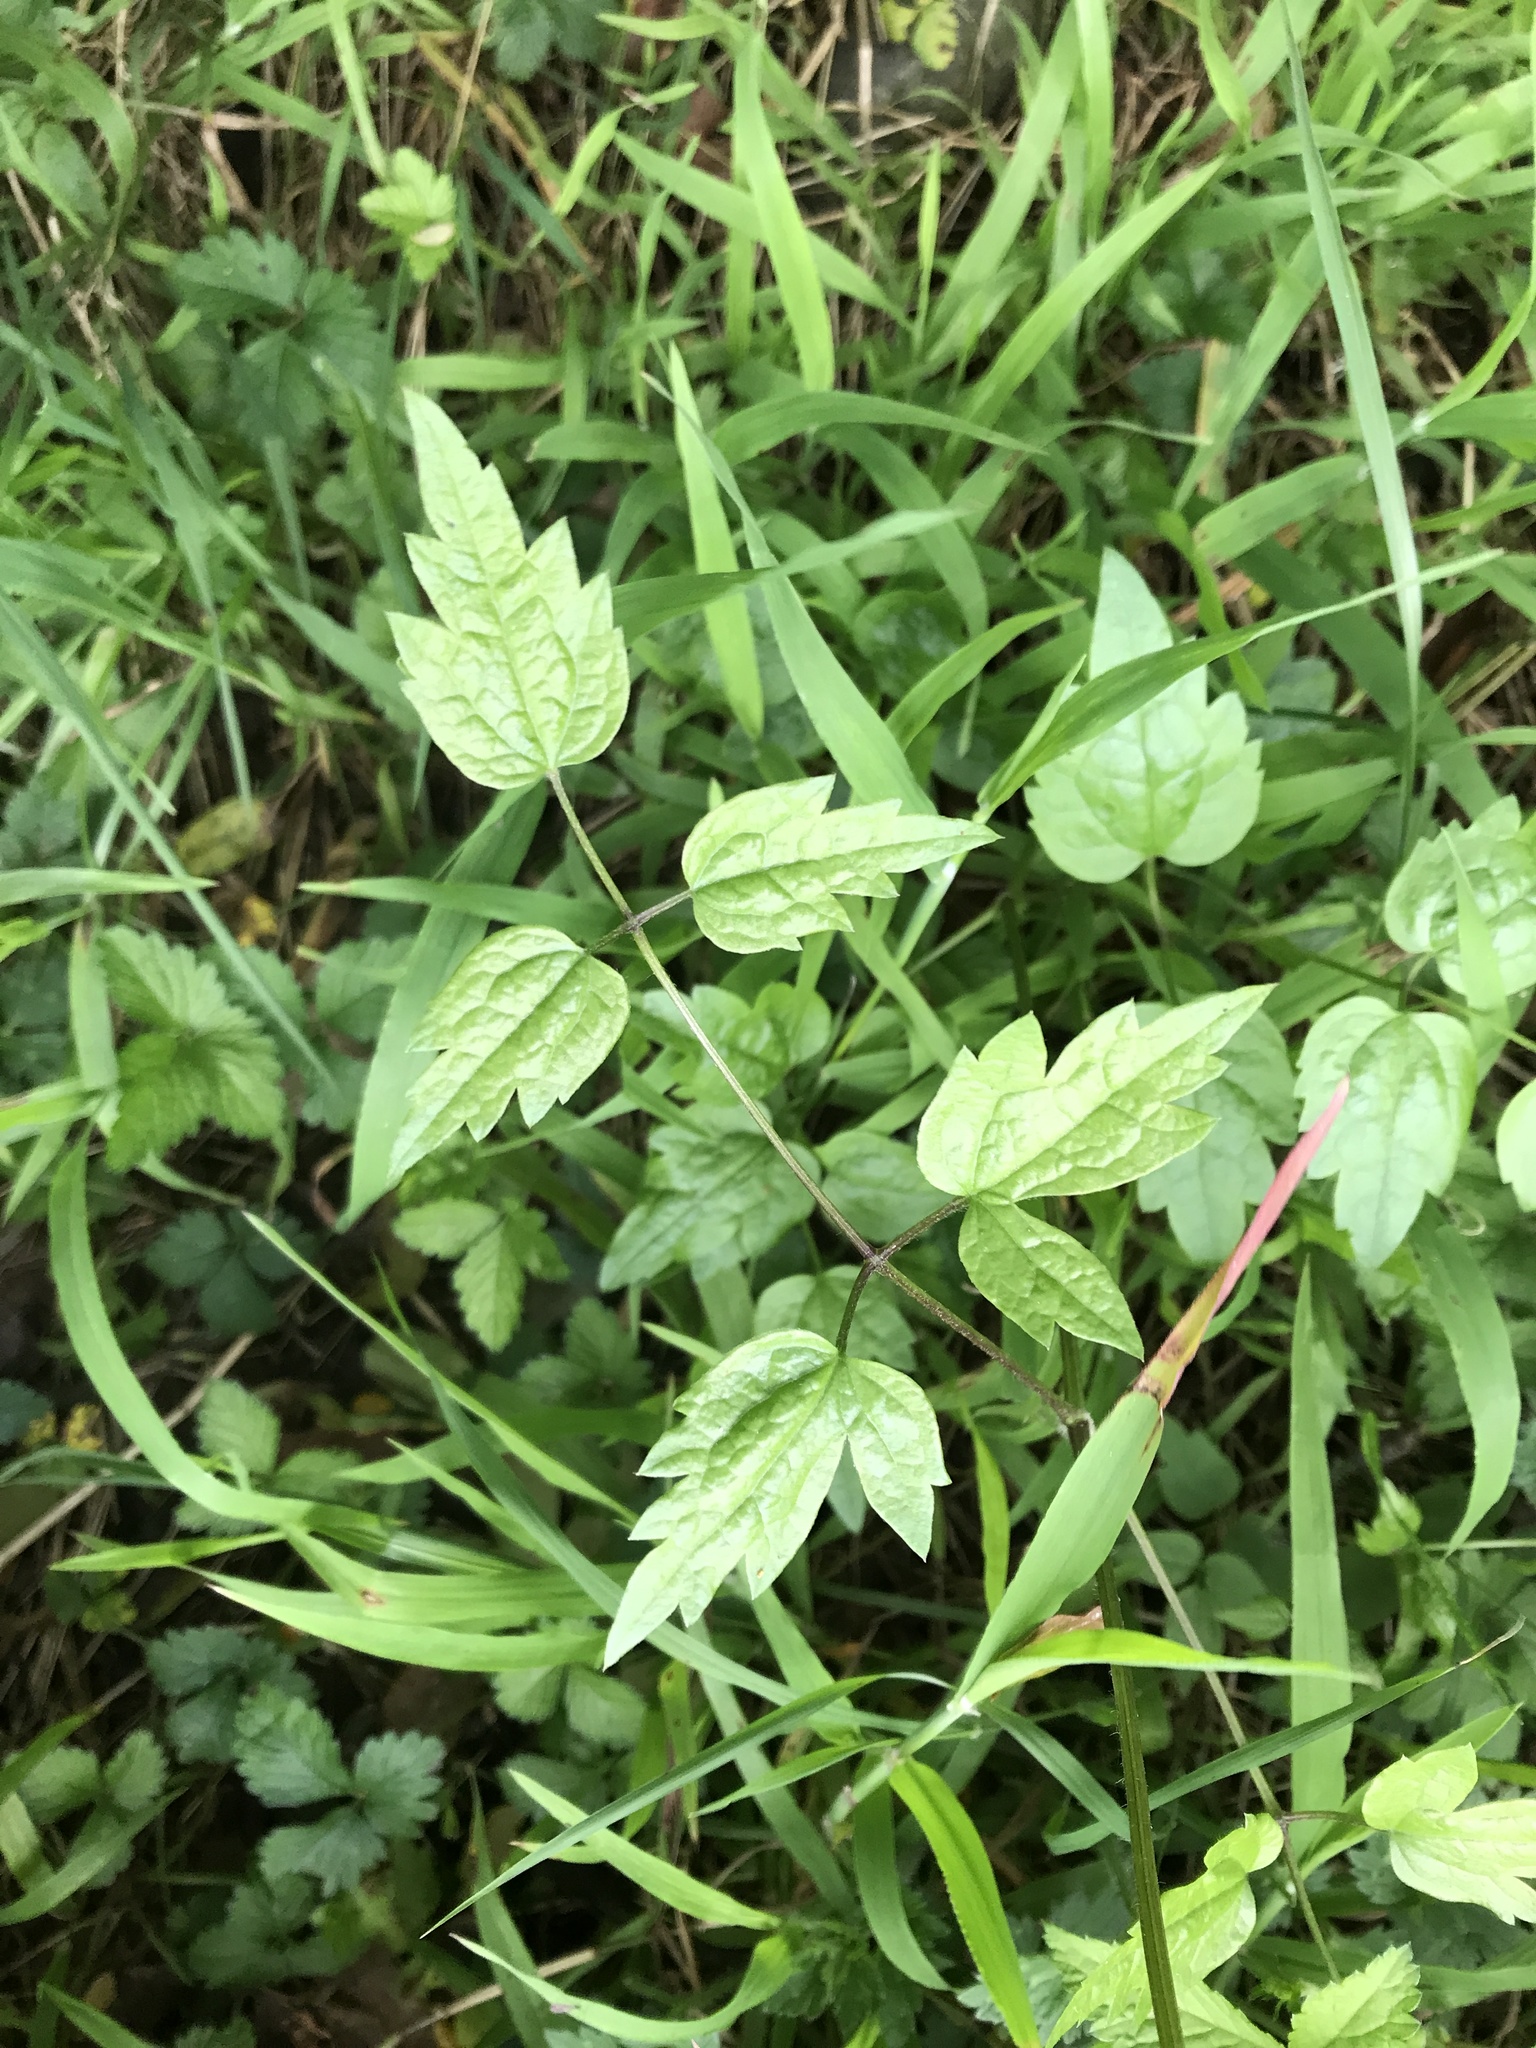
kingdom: Plantae
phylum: Tracheophyta
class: Magnoliopsida
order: Ranunculales
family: Ranunculaceae
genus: Clematis
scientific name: Clematis vitalba
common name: Evergreen clematis
